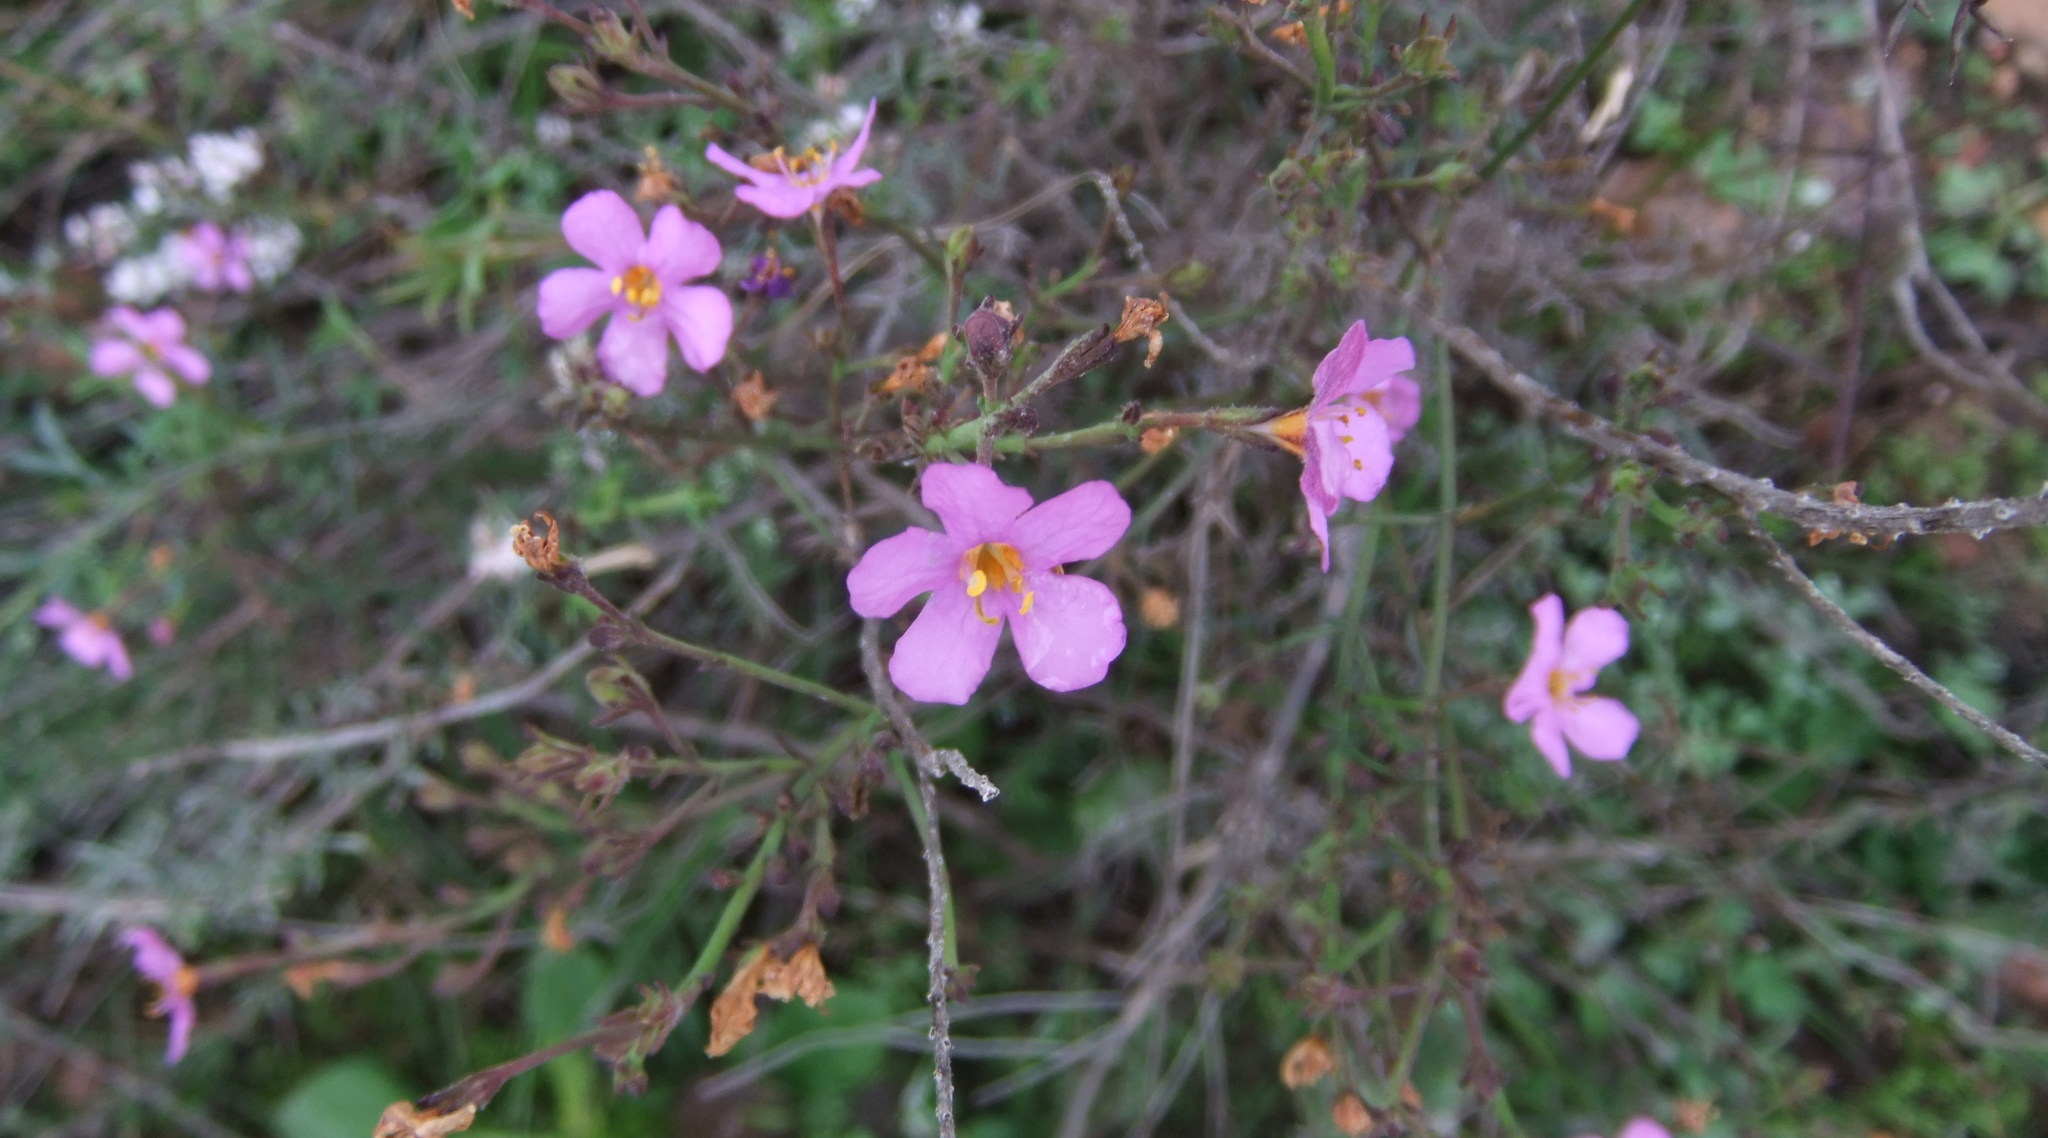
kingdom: Plantae
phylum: Tracheophyta
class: Magnoliopsida
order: Lamiales
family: Scrophulariaceae
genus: Chaenostoma
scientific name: Chaenostoma subnudum
